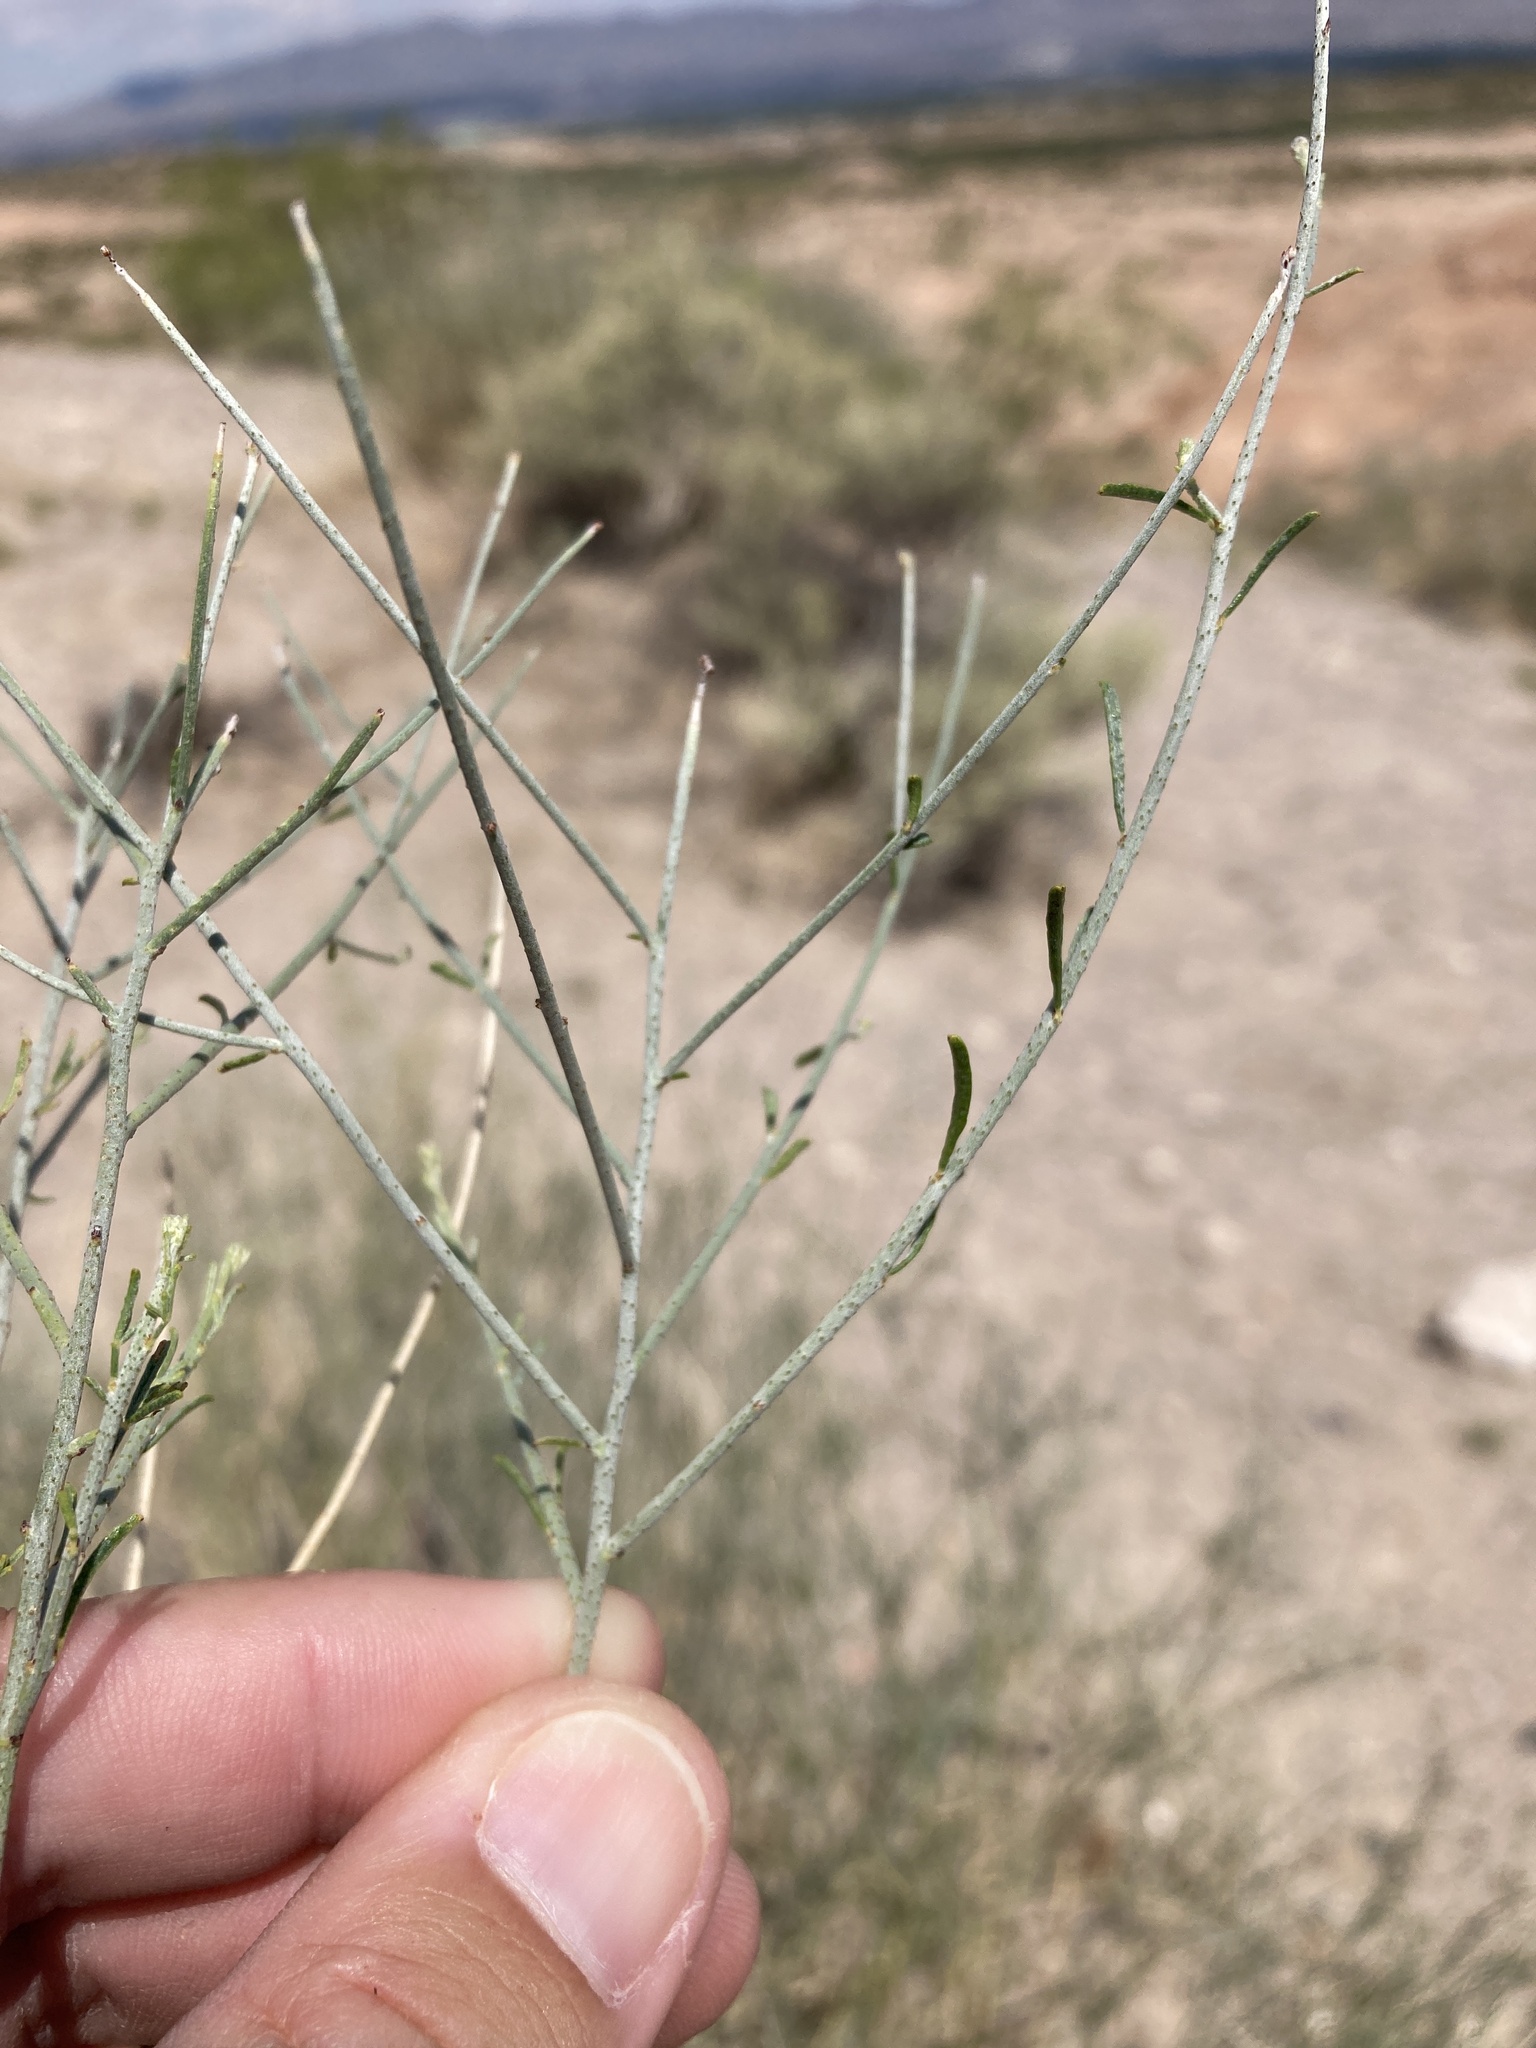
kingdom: Plantae
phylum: Tracheophyta
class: Magnoliopsida
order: Fabales
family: Fabaceae
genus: Psorothamnus
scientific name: Psorothamnus scoparius
